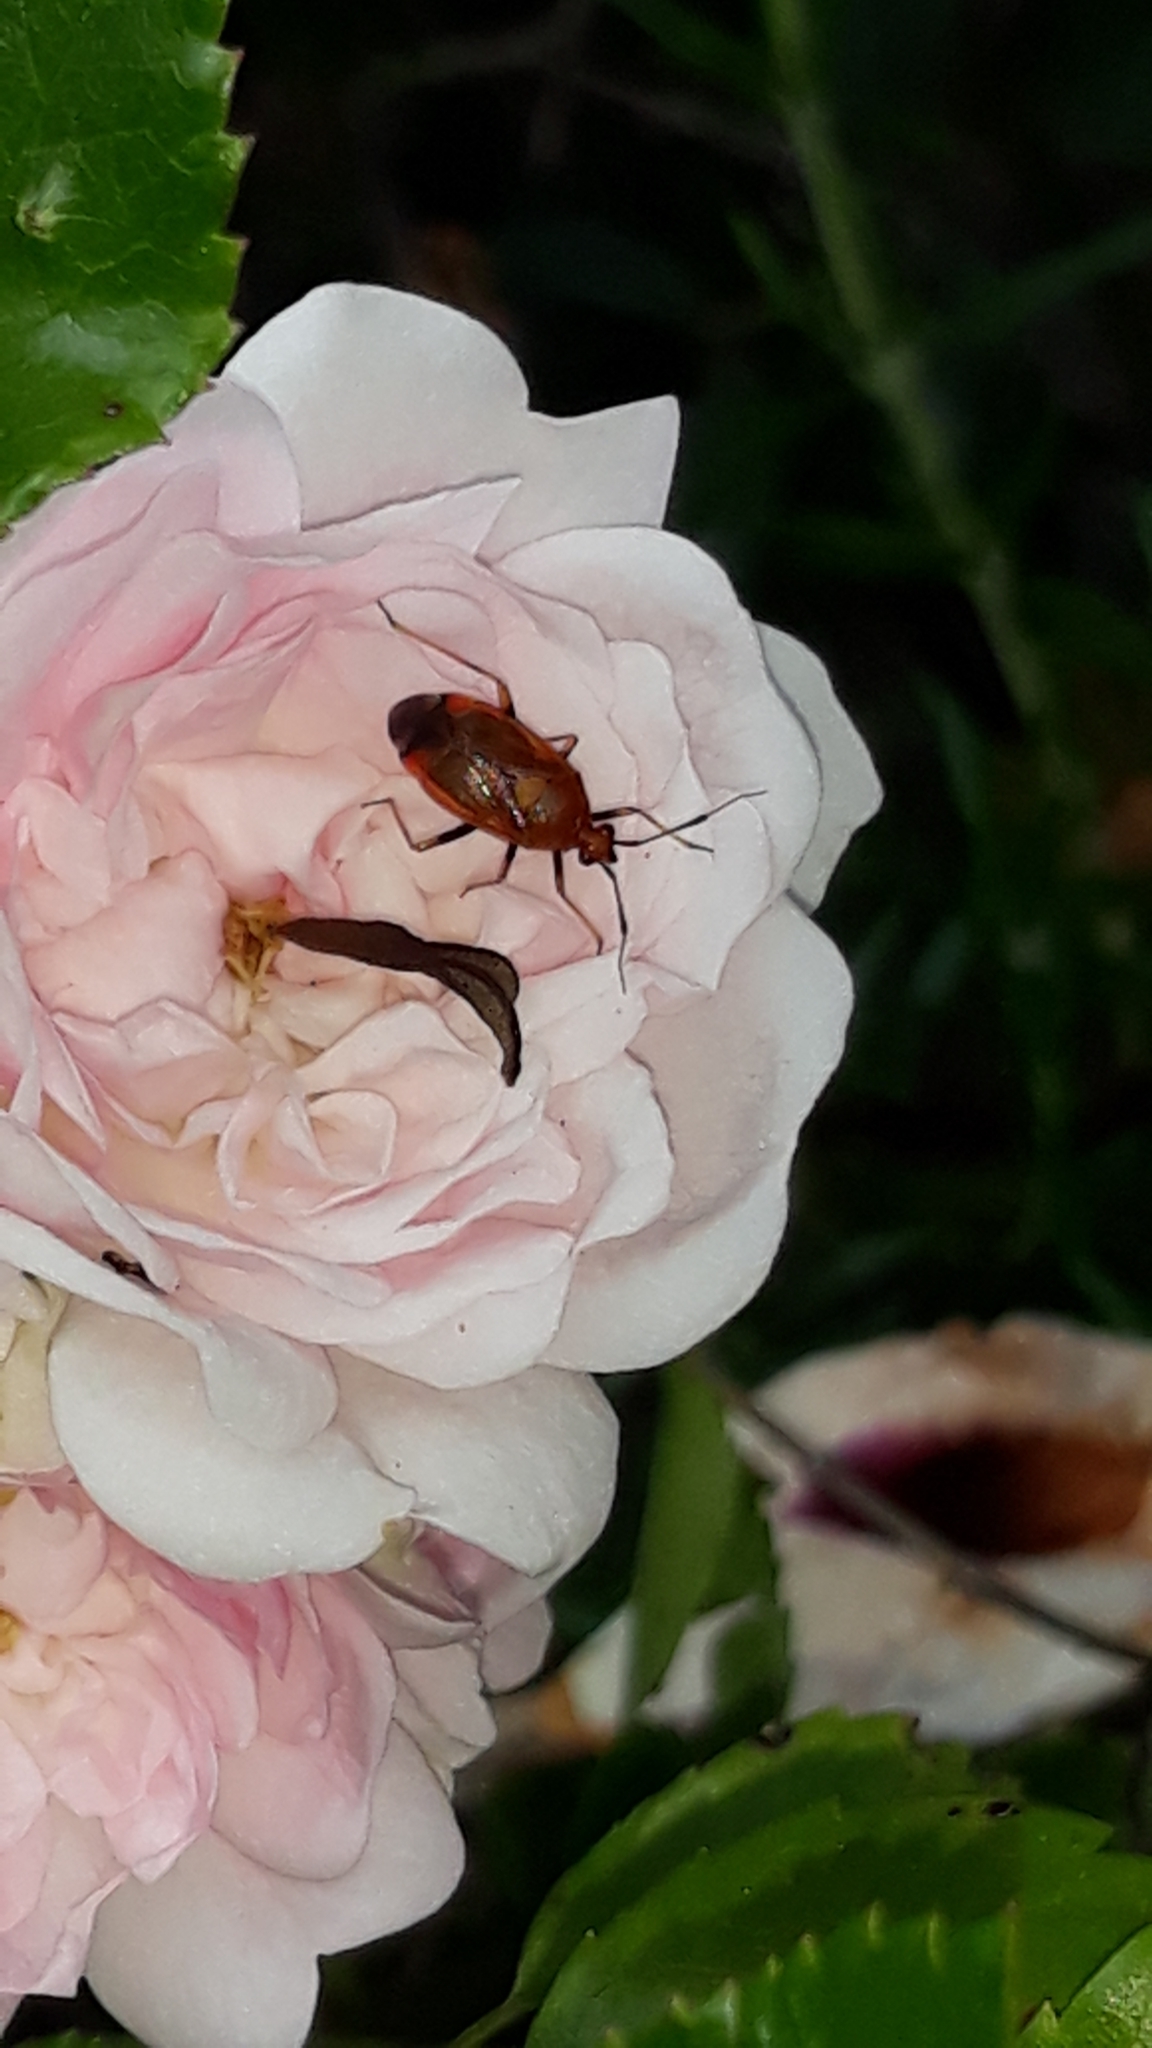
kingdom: Animalia
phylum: Arthropoda
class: Insecta
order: Hemiptera
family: Miridae
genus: Deraeocoris
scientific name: Deraeocoris ruber
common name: Plant bug
